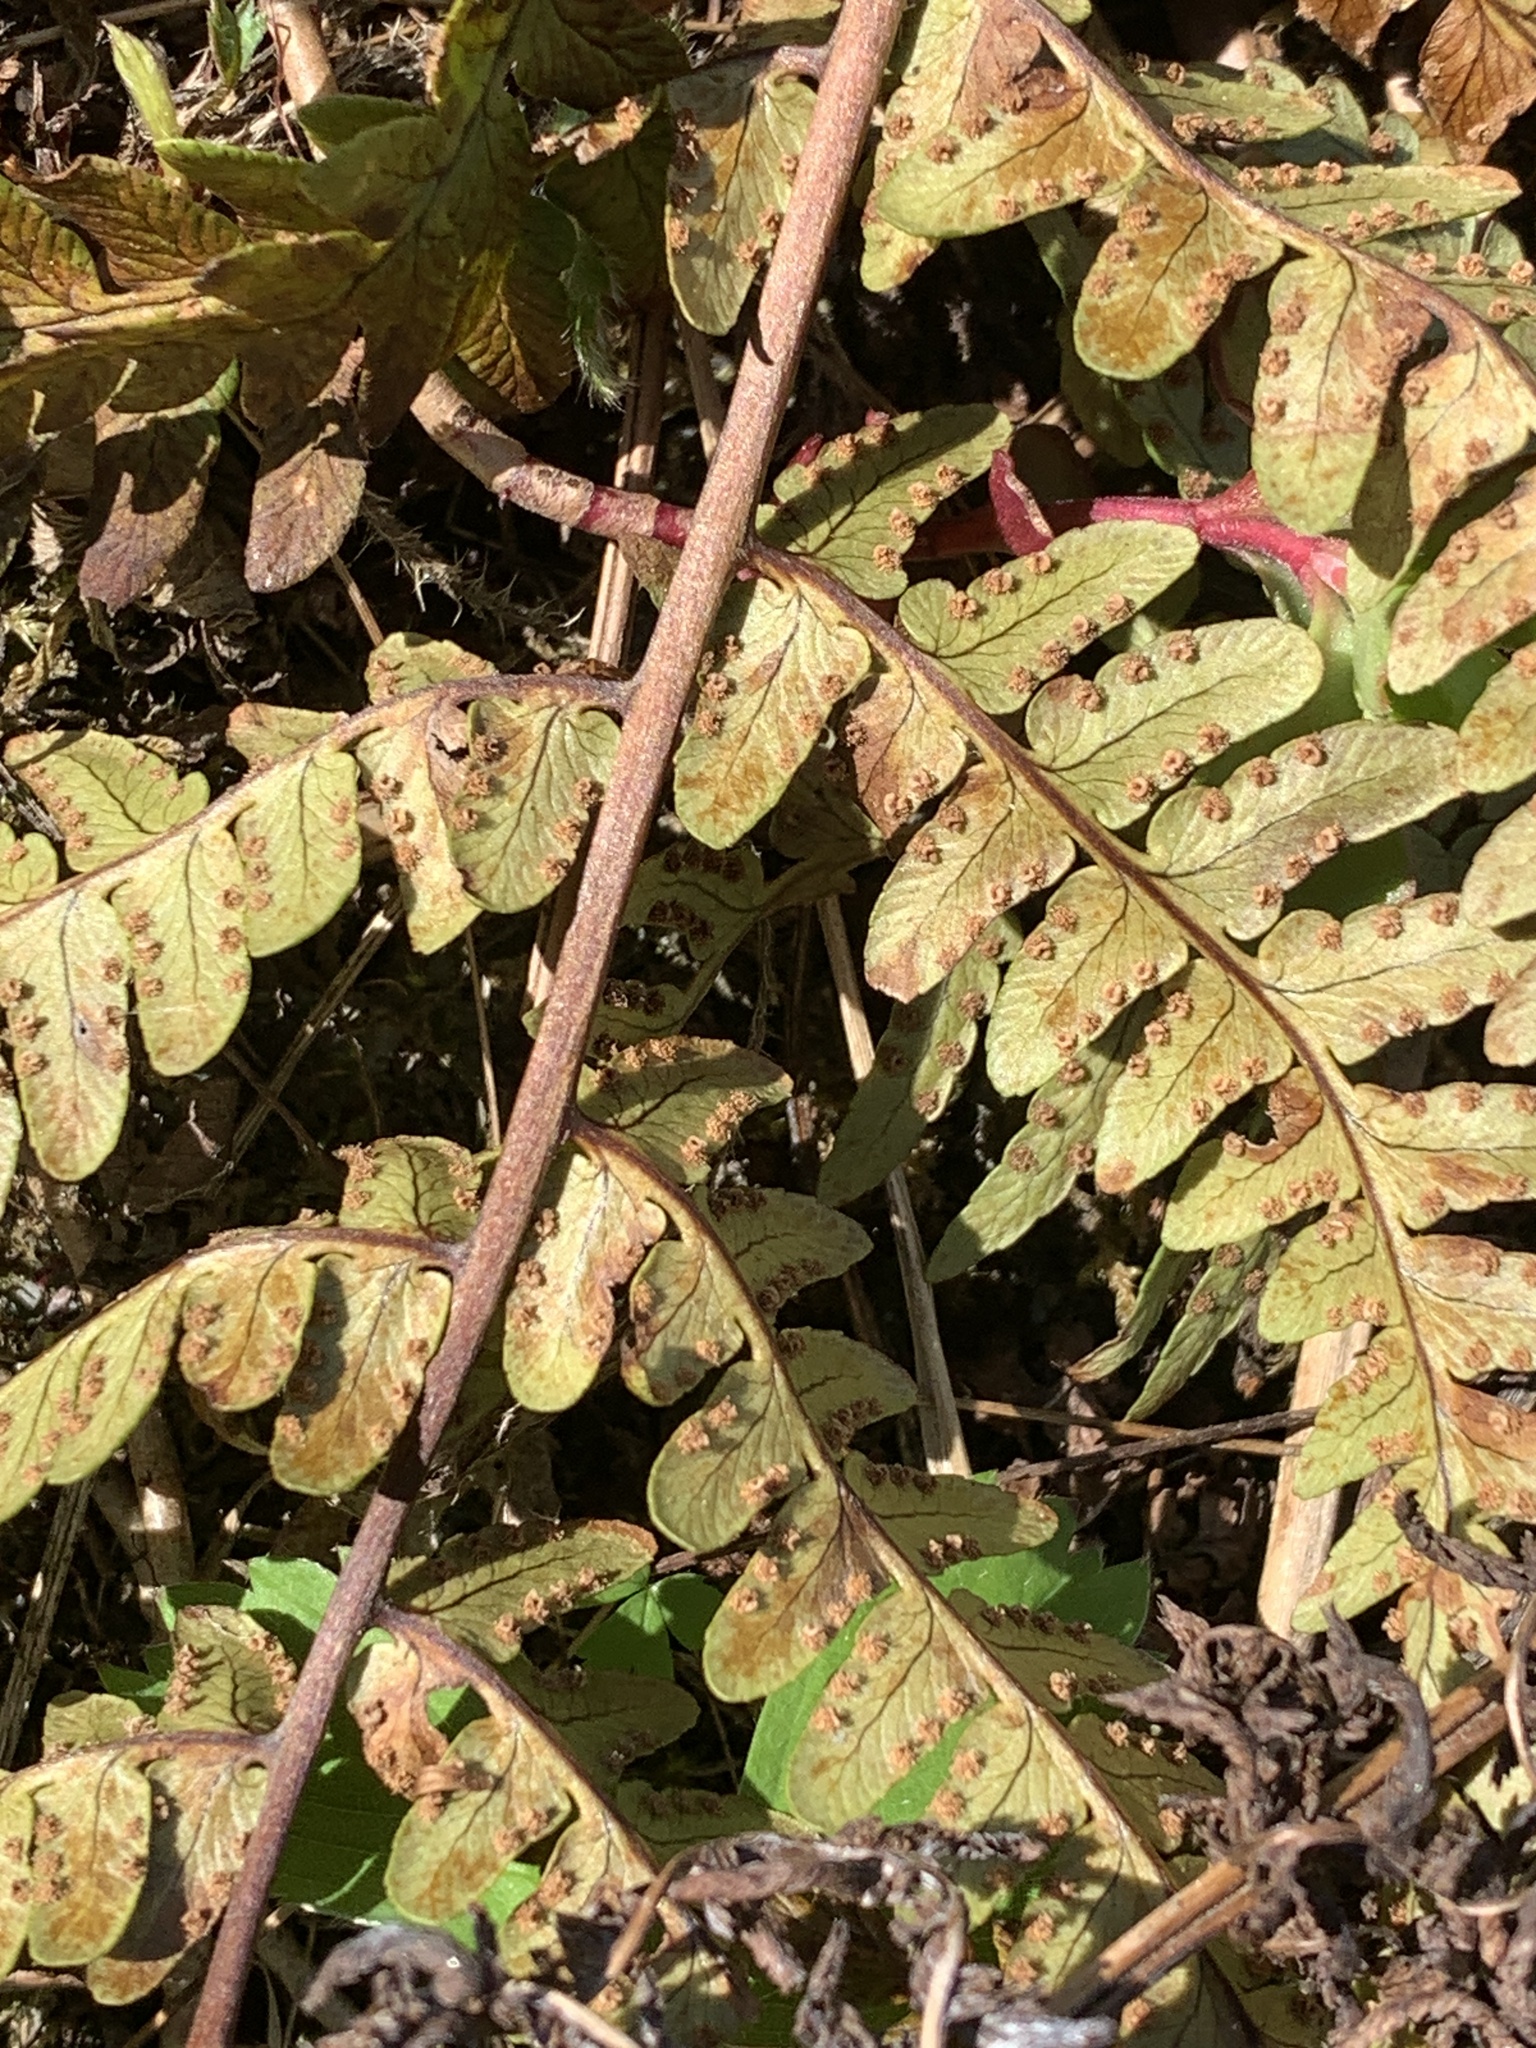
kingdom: Plantae
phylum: Tracheophyta
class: Polypodiopsida
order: Polypodiales
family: Dryopteridaceae
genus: Dryopteris
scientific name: Dryopteris marginalis
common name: Marginal wood fern
